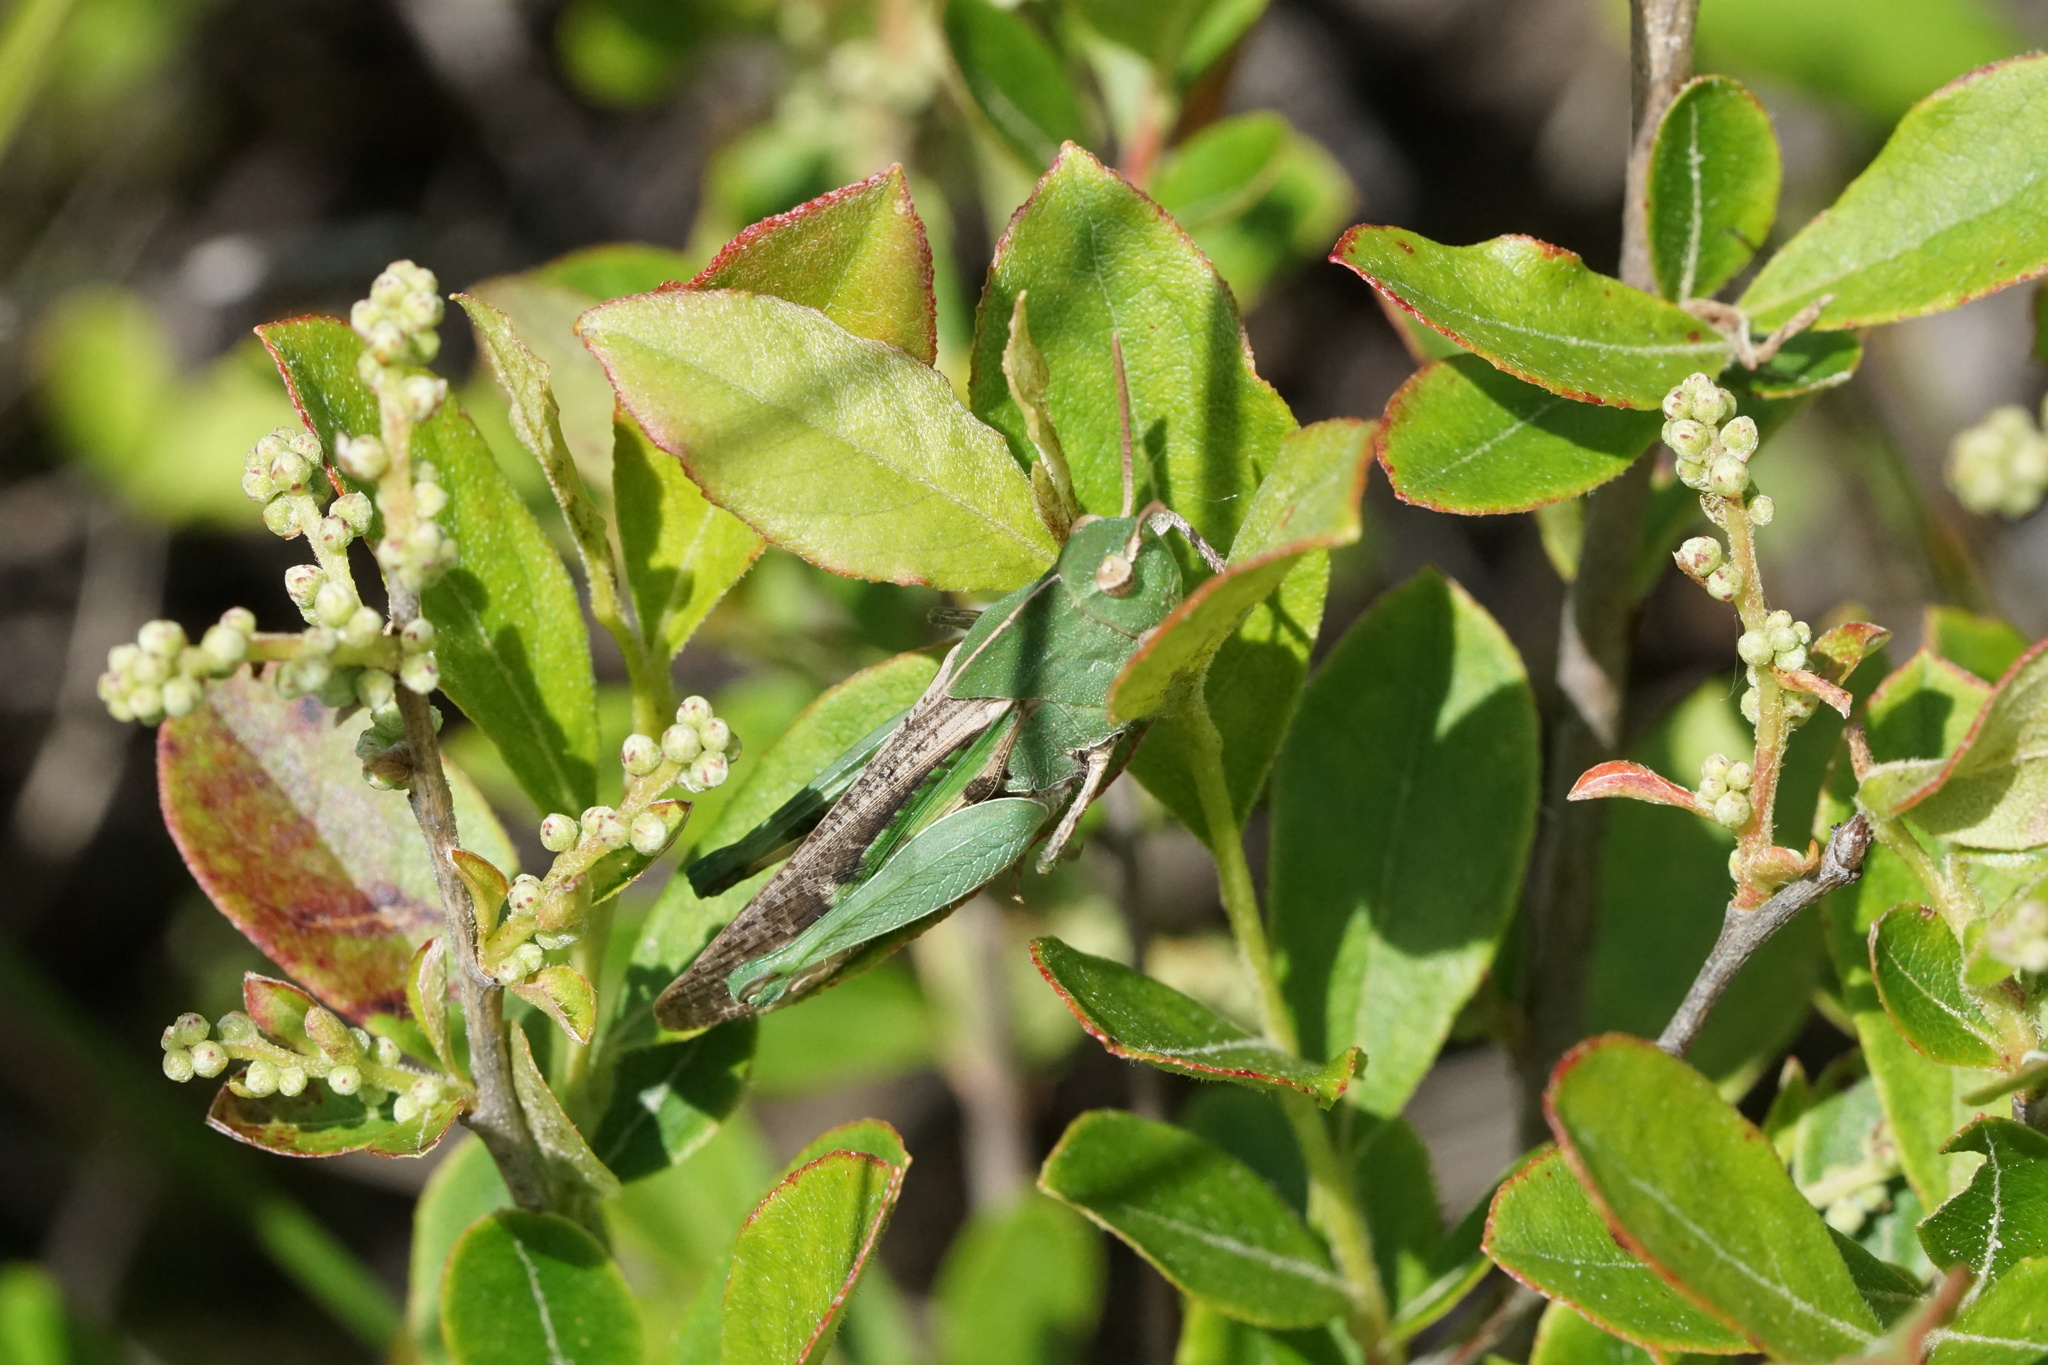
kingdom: Animalia
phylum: Arthropoda
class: Insecta
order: Orthoptera
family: Acrididae
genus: Chortophaga
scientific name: Chortophaga viridifasciata
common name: Green-striped grasshopper
